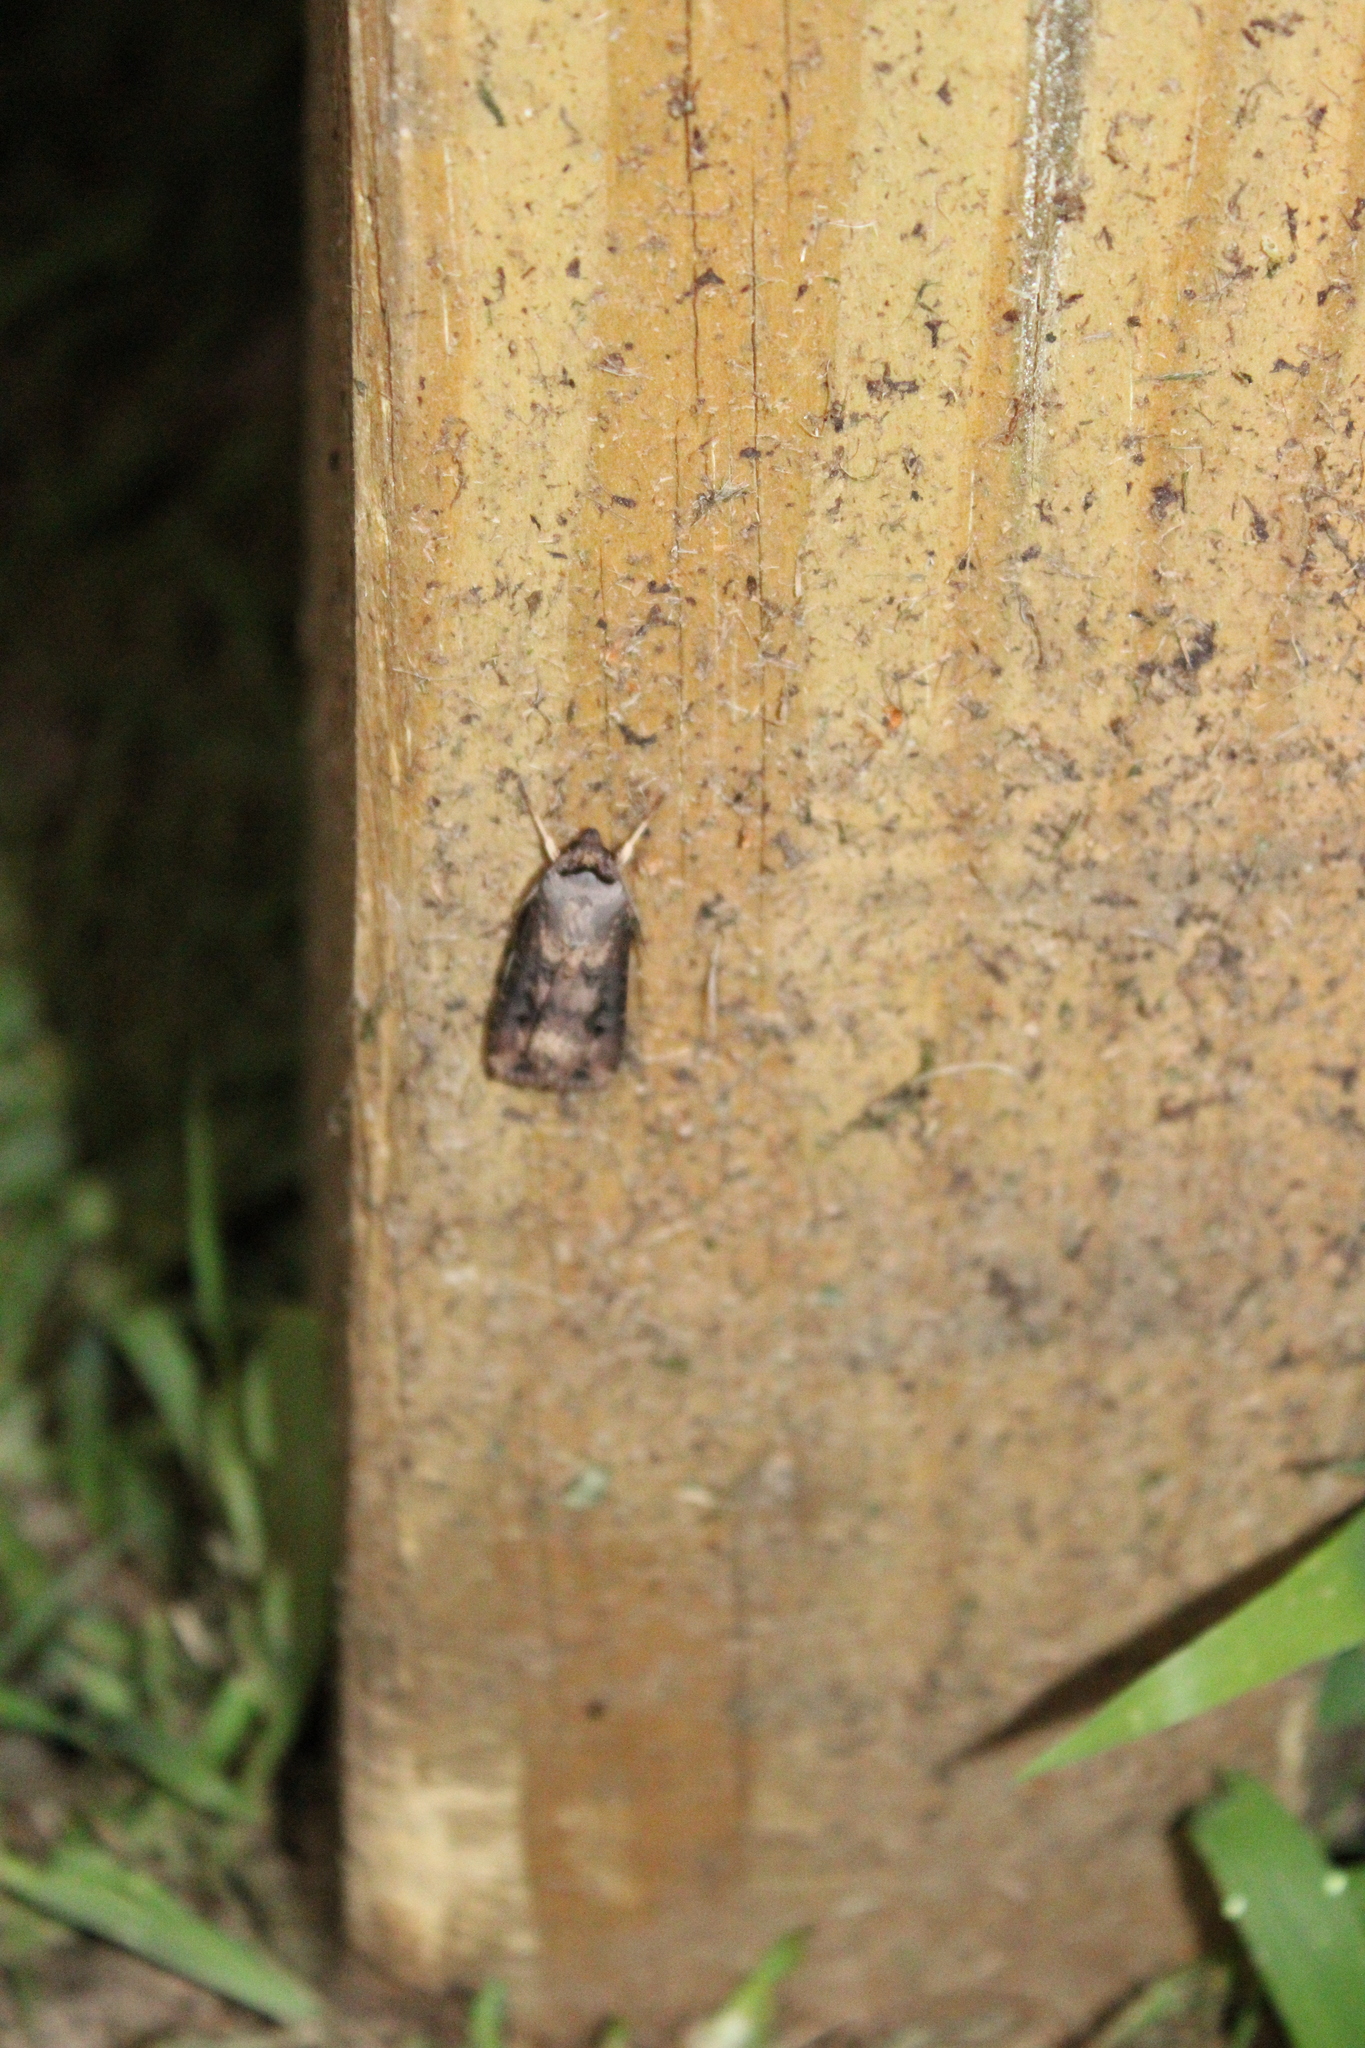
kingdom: Animalia
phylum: Arthropoda
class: Insecta
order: Lepidoptera
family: Noctuidae
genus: Agrotis
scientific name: Agrotis ipsilon
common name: Dark sword-grass
